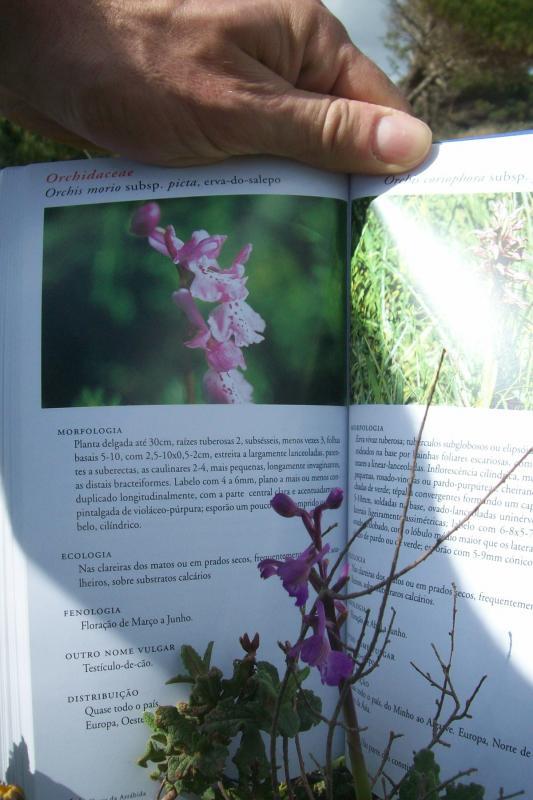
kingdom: Plantae
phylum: Tracheophyta
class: Liliopsida
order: Asparagales
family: Orchidaceae
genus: Anacamptis
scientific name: Anacamptis morio
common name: Green-winged orchid
